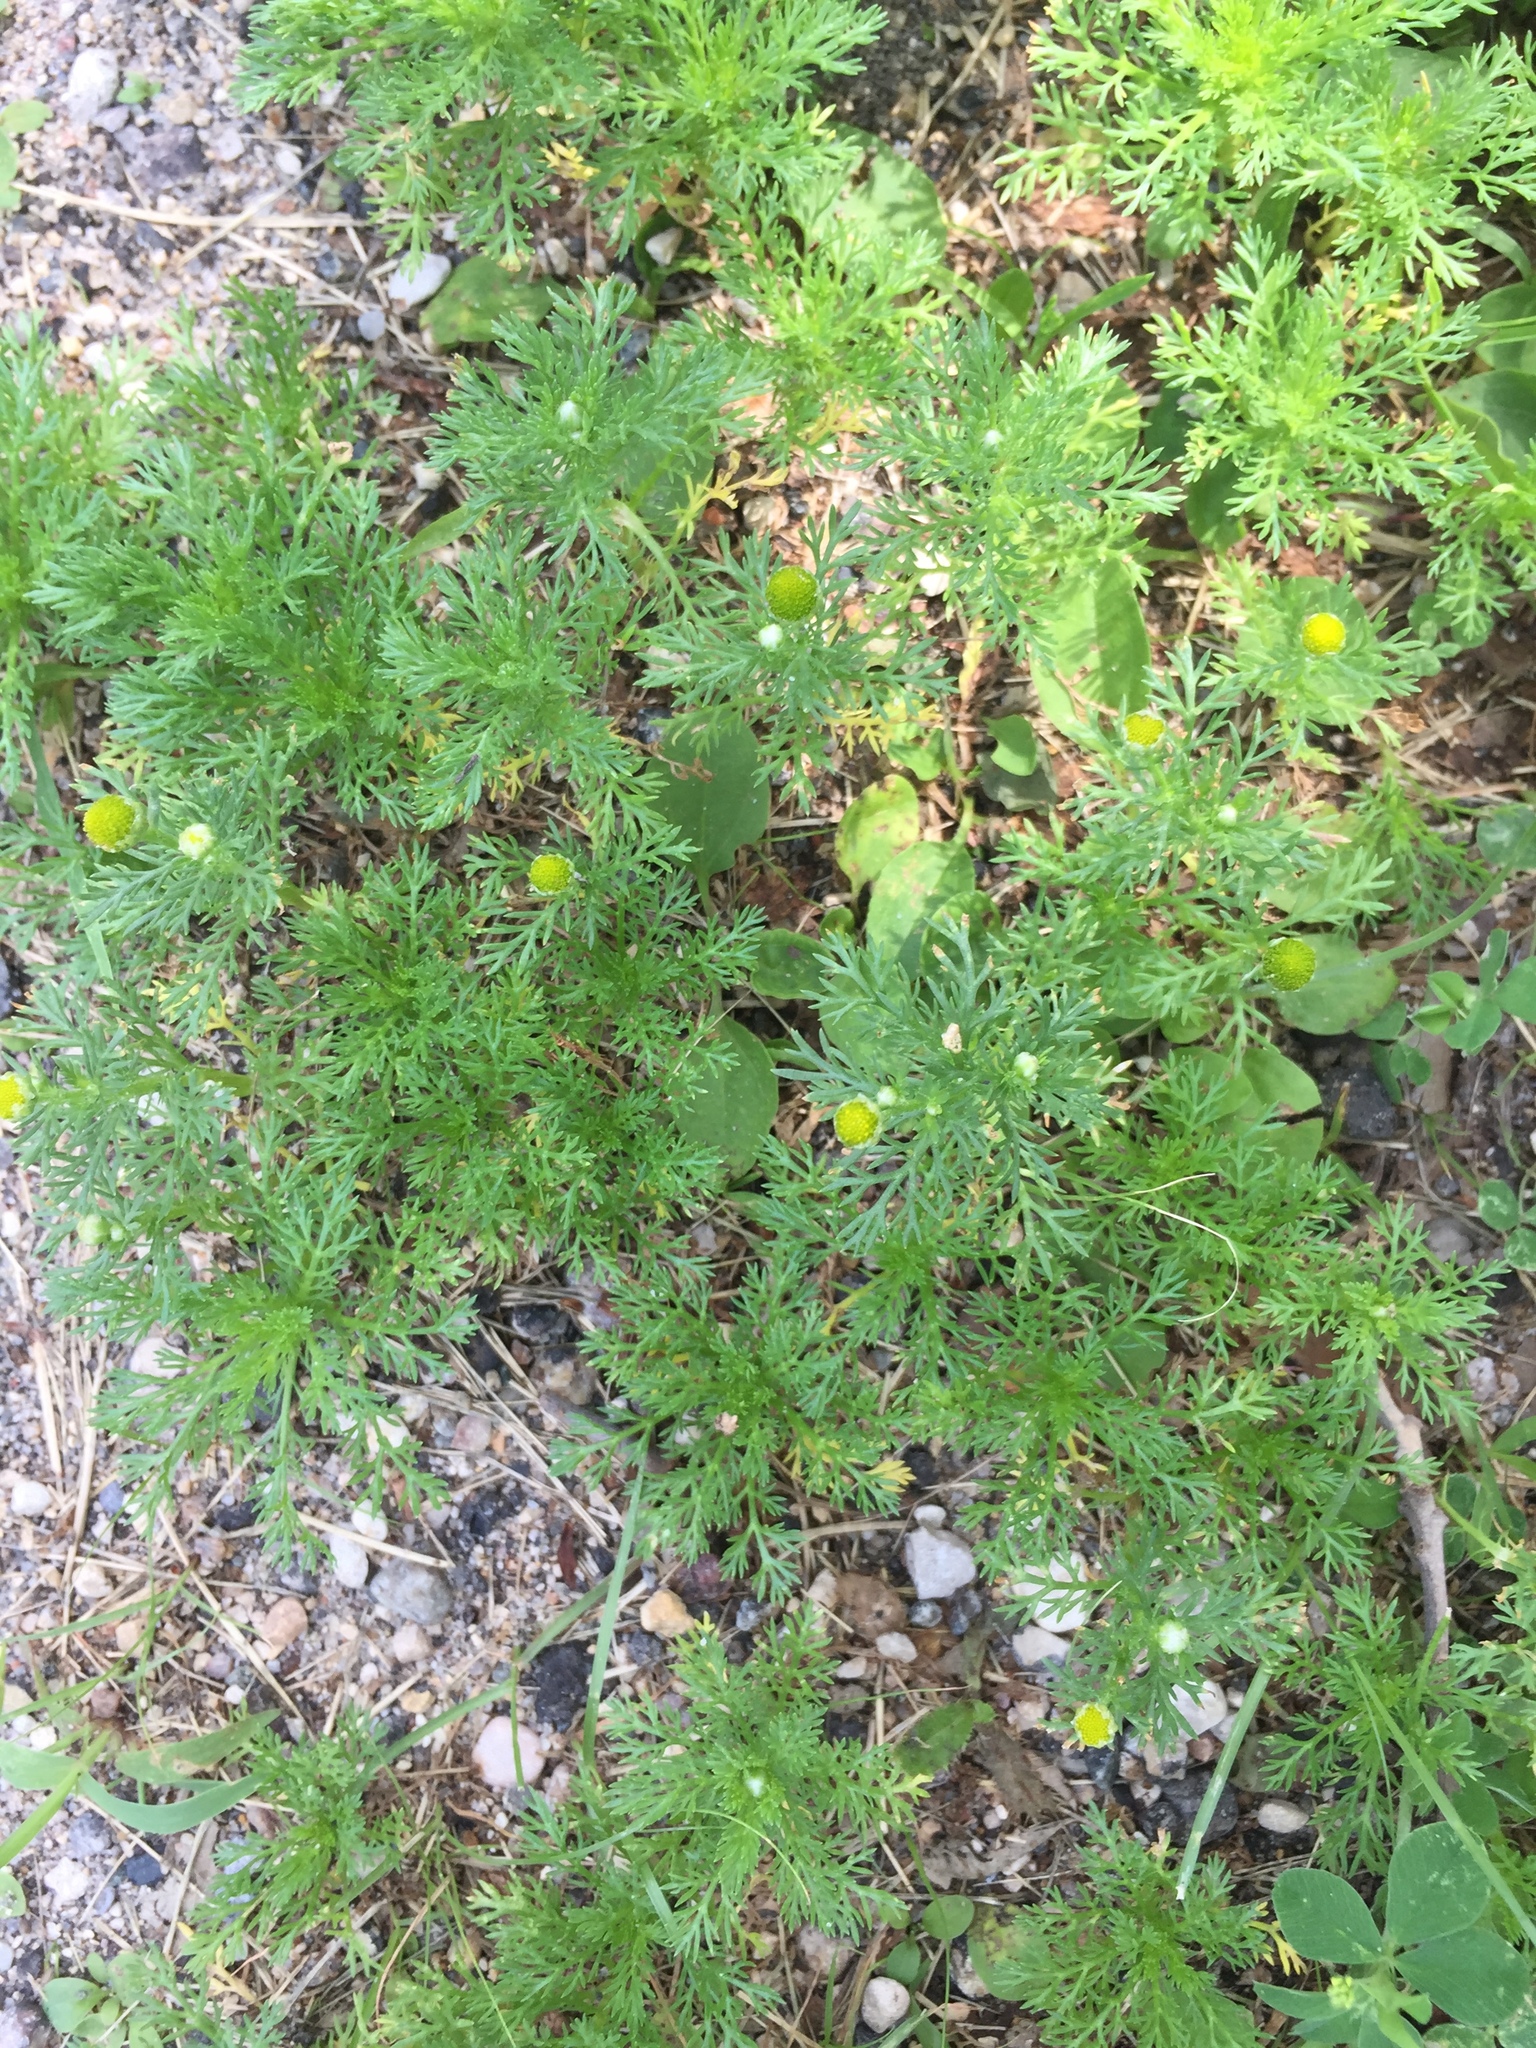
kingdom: Plantae
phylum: Tracheophyta
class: Magnoliopsida
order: Asterales
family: Asteraceae
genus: Matricaria
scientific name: Matricaria discoidea
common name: Disc mayweed
